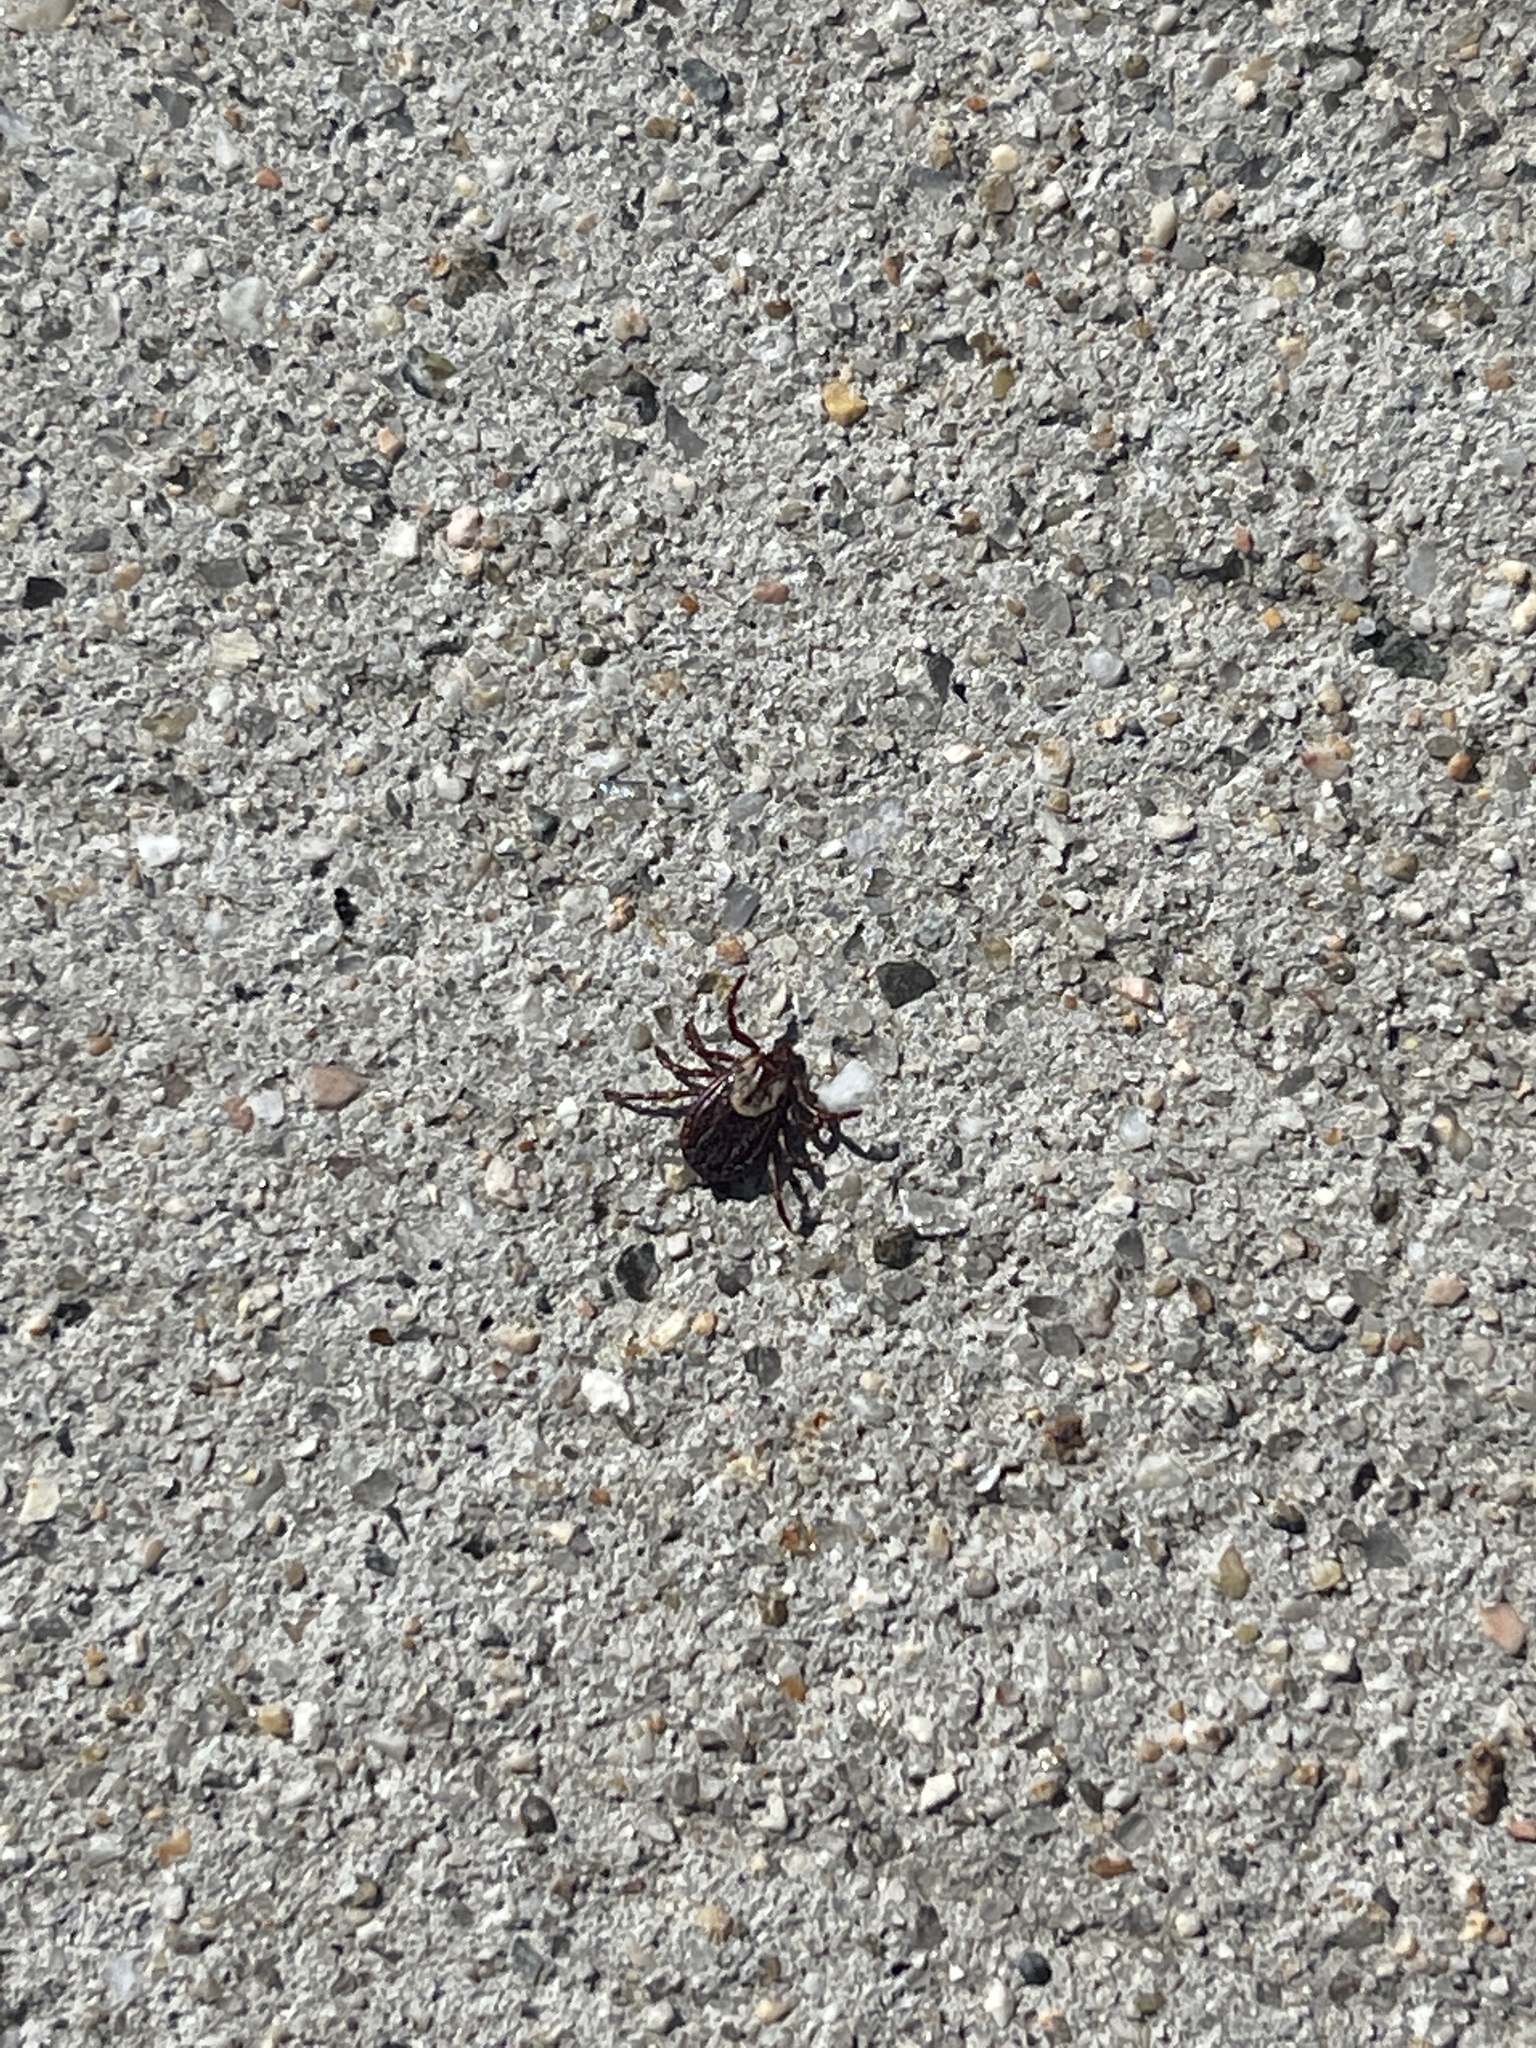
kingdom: Animalia
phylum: Arthropoda
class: Arachnida
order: Ixodida
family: Ixodidae
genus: Dermacentor
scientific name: Dermacentor variabilis
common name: American dog tick
